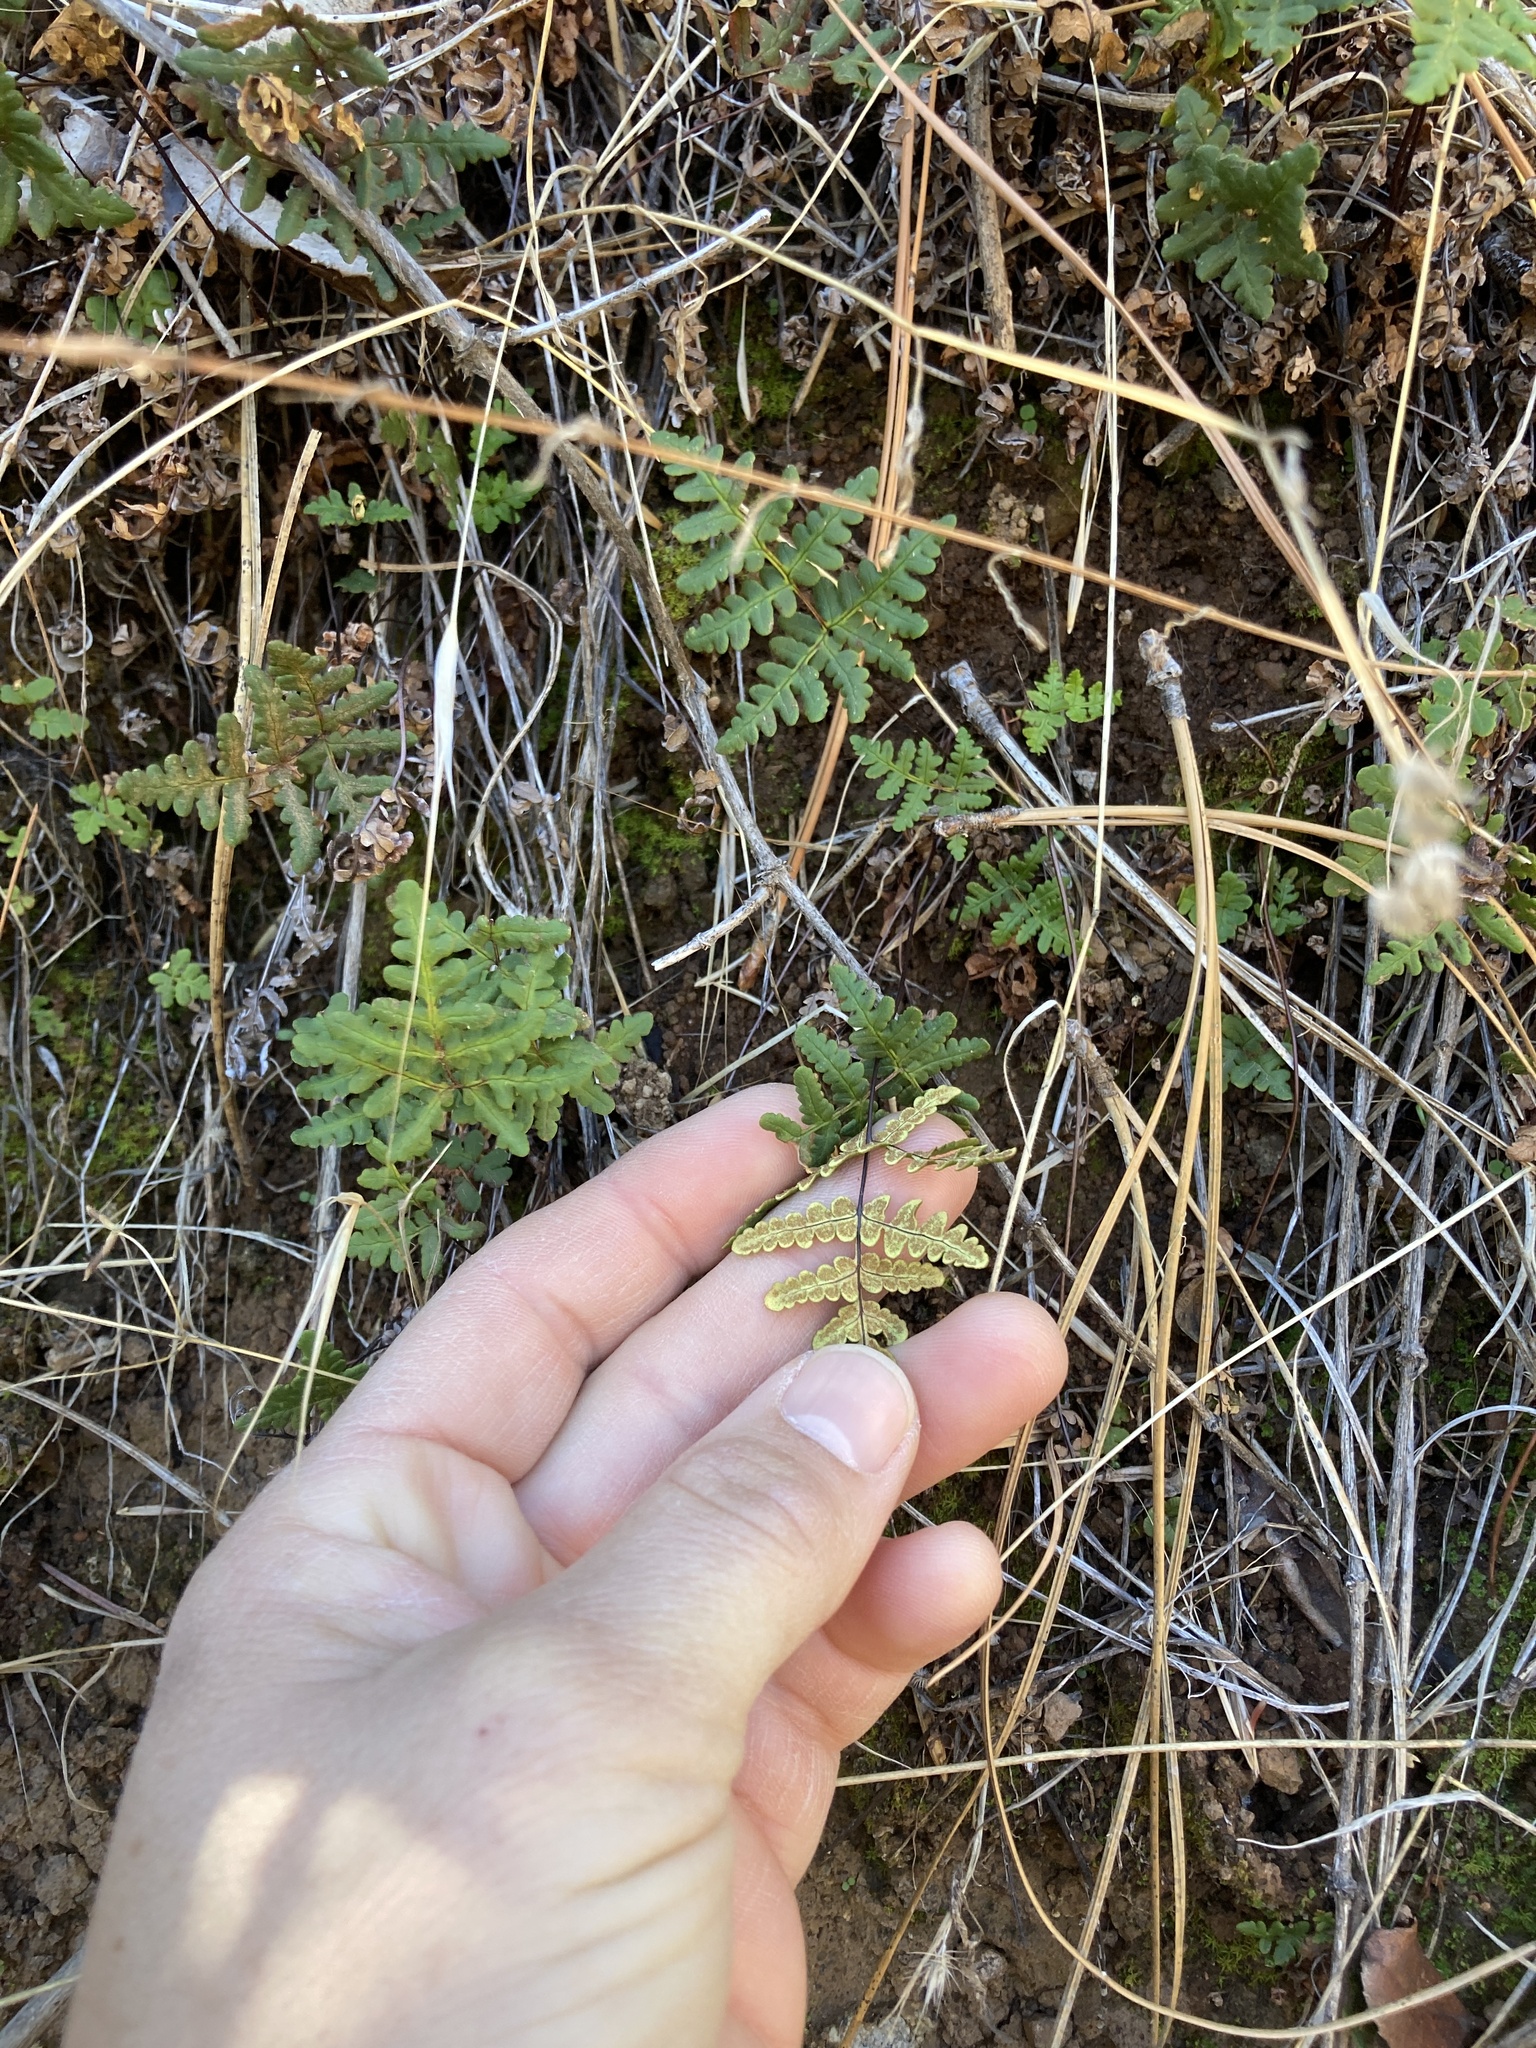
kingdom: Plantae
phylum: Tracheophyta
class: Polypodiopsida
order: Polypodiales
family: Pteridaceae
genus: Pentagramma
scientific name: Pentagramma triangularis
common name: Gold fern
